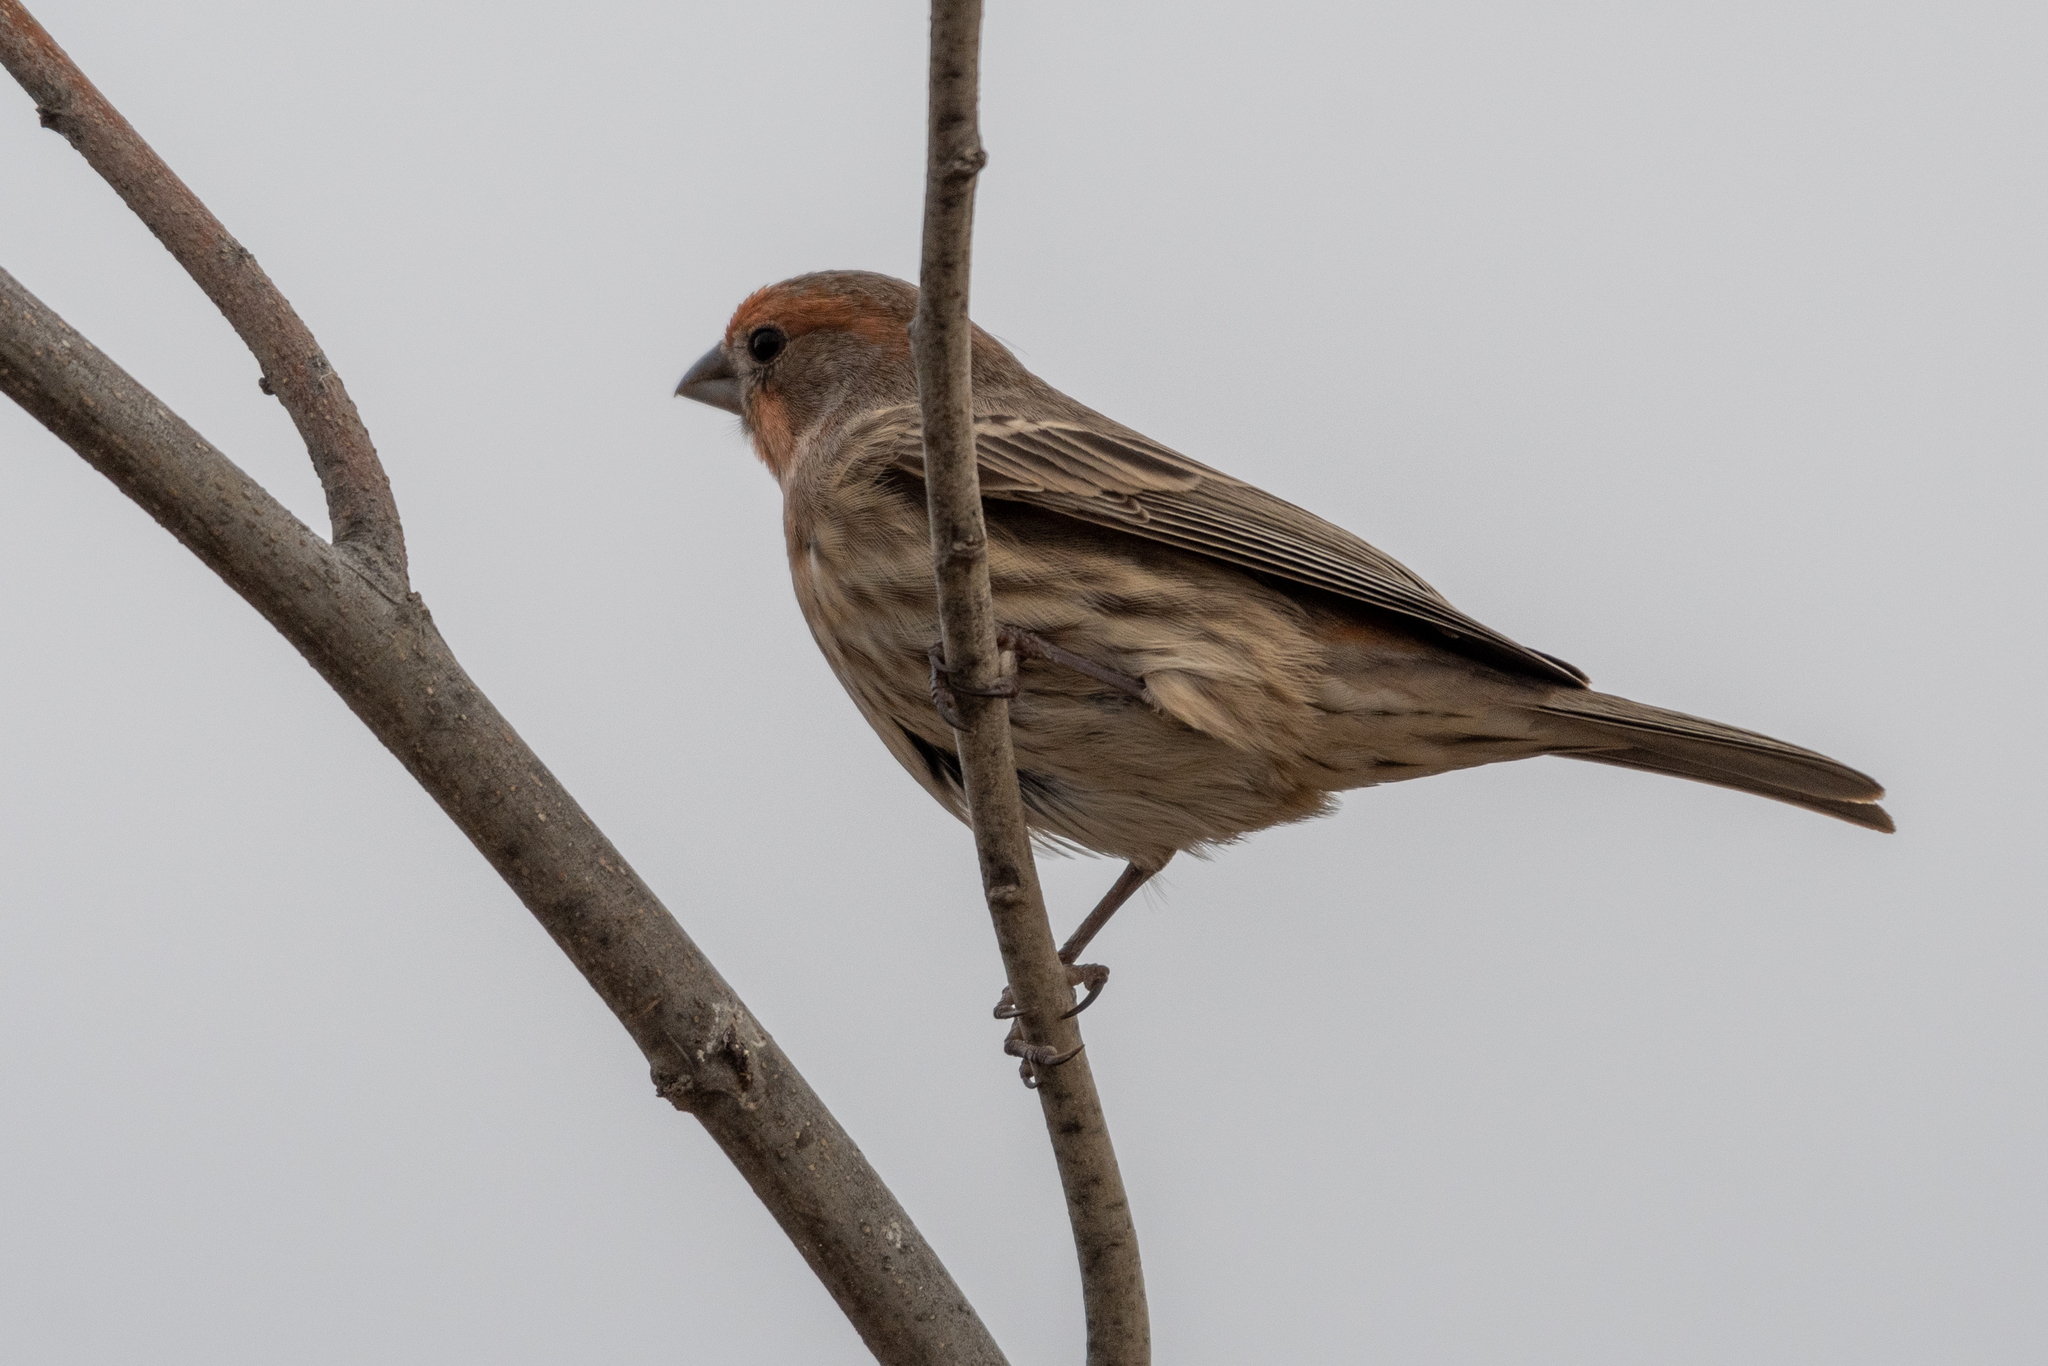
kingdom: Animalia
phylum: Chordata
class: Aves
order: Passeriformes
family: Fringillidae
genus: Haemorhous
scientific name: Haemorhous mexicanus
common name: House finch
